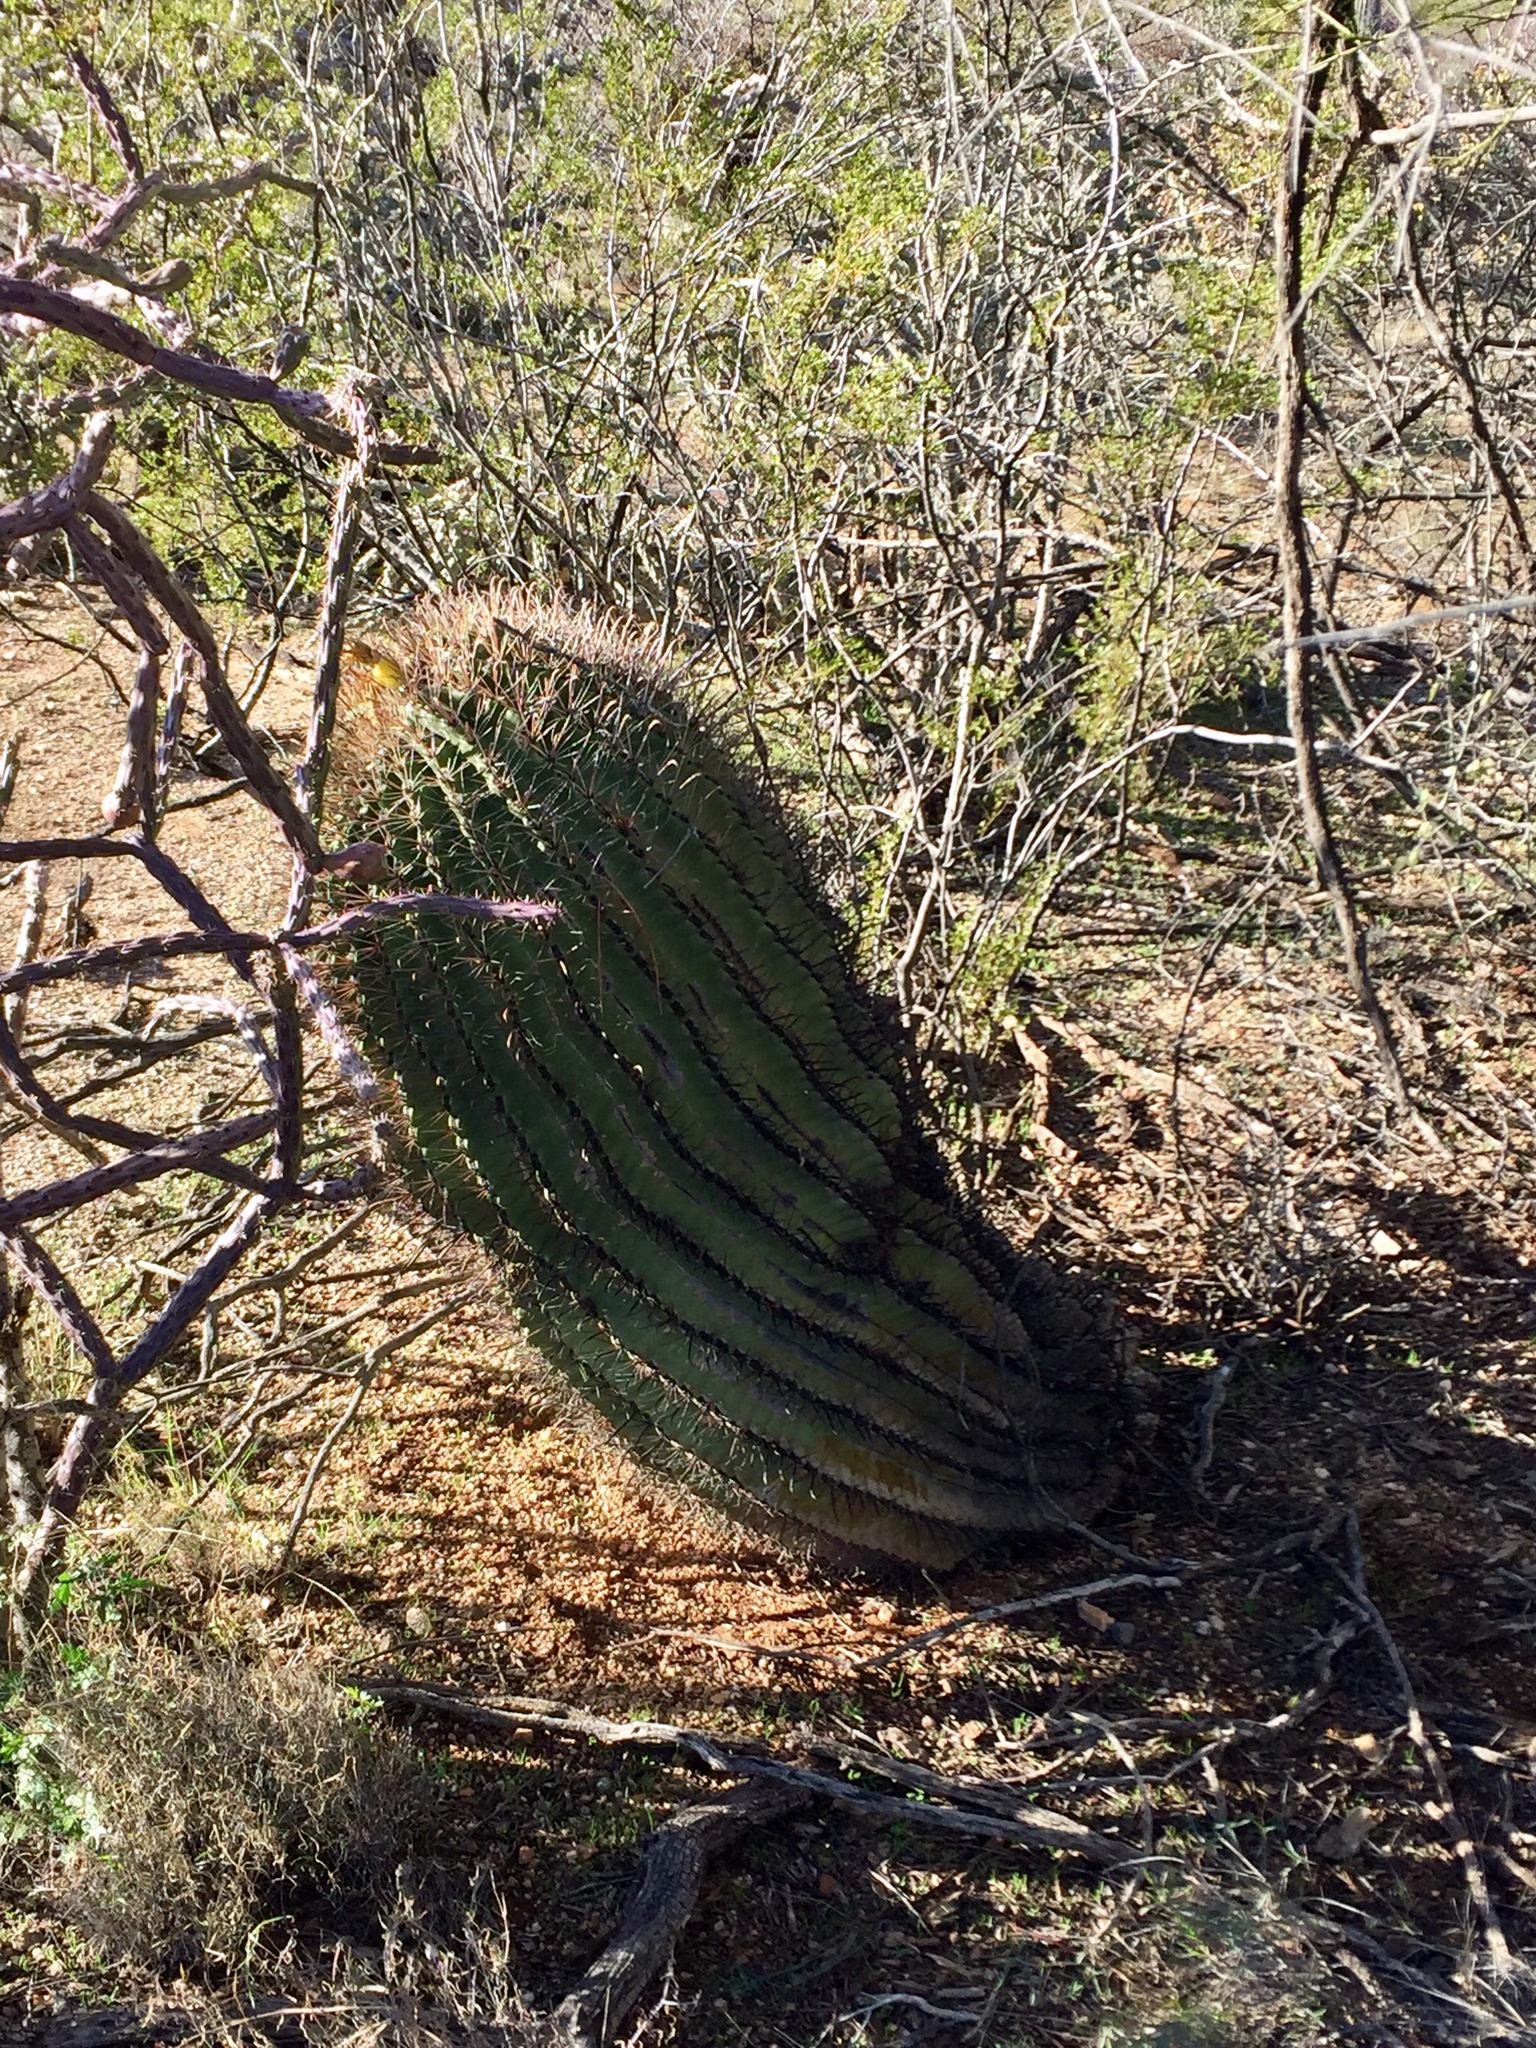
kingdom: Plantae
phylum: Tracheophyta
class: Magnoliopsida
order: Caryophyllales
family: Cactaceae
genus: Ferocactus
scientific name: Ferocactus wislizeni
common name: Candy barrel cactus
